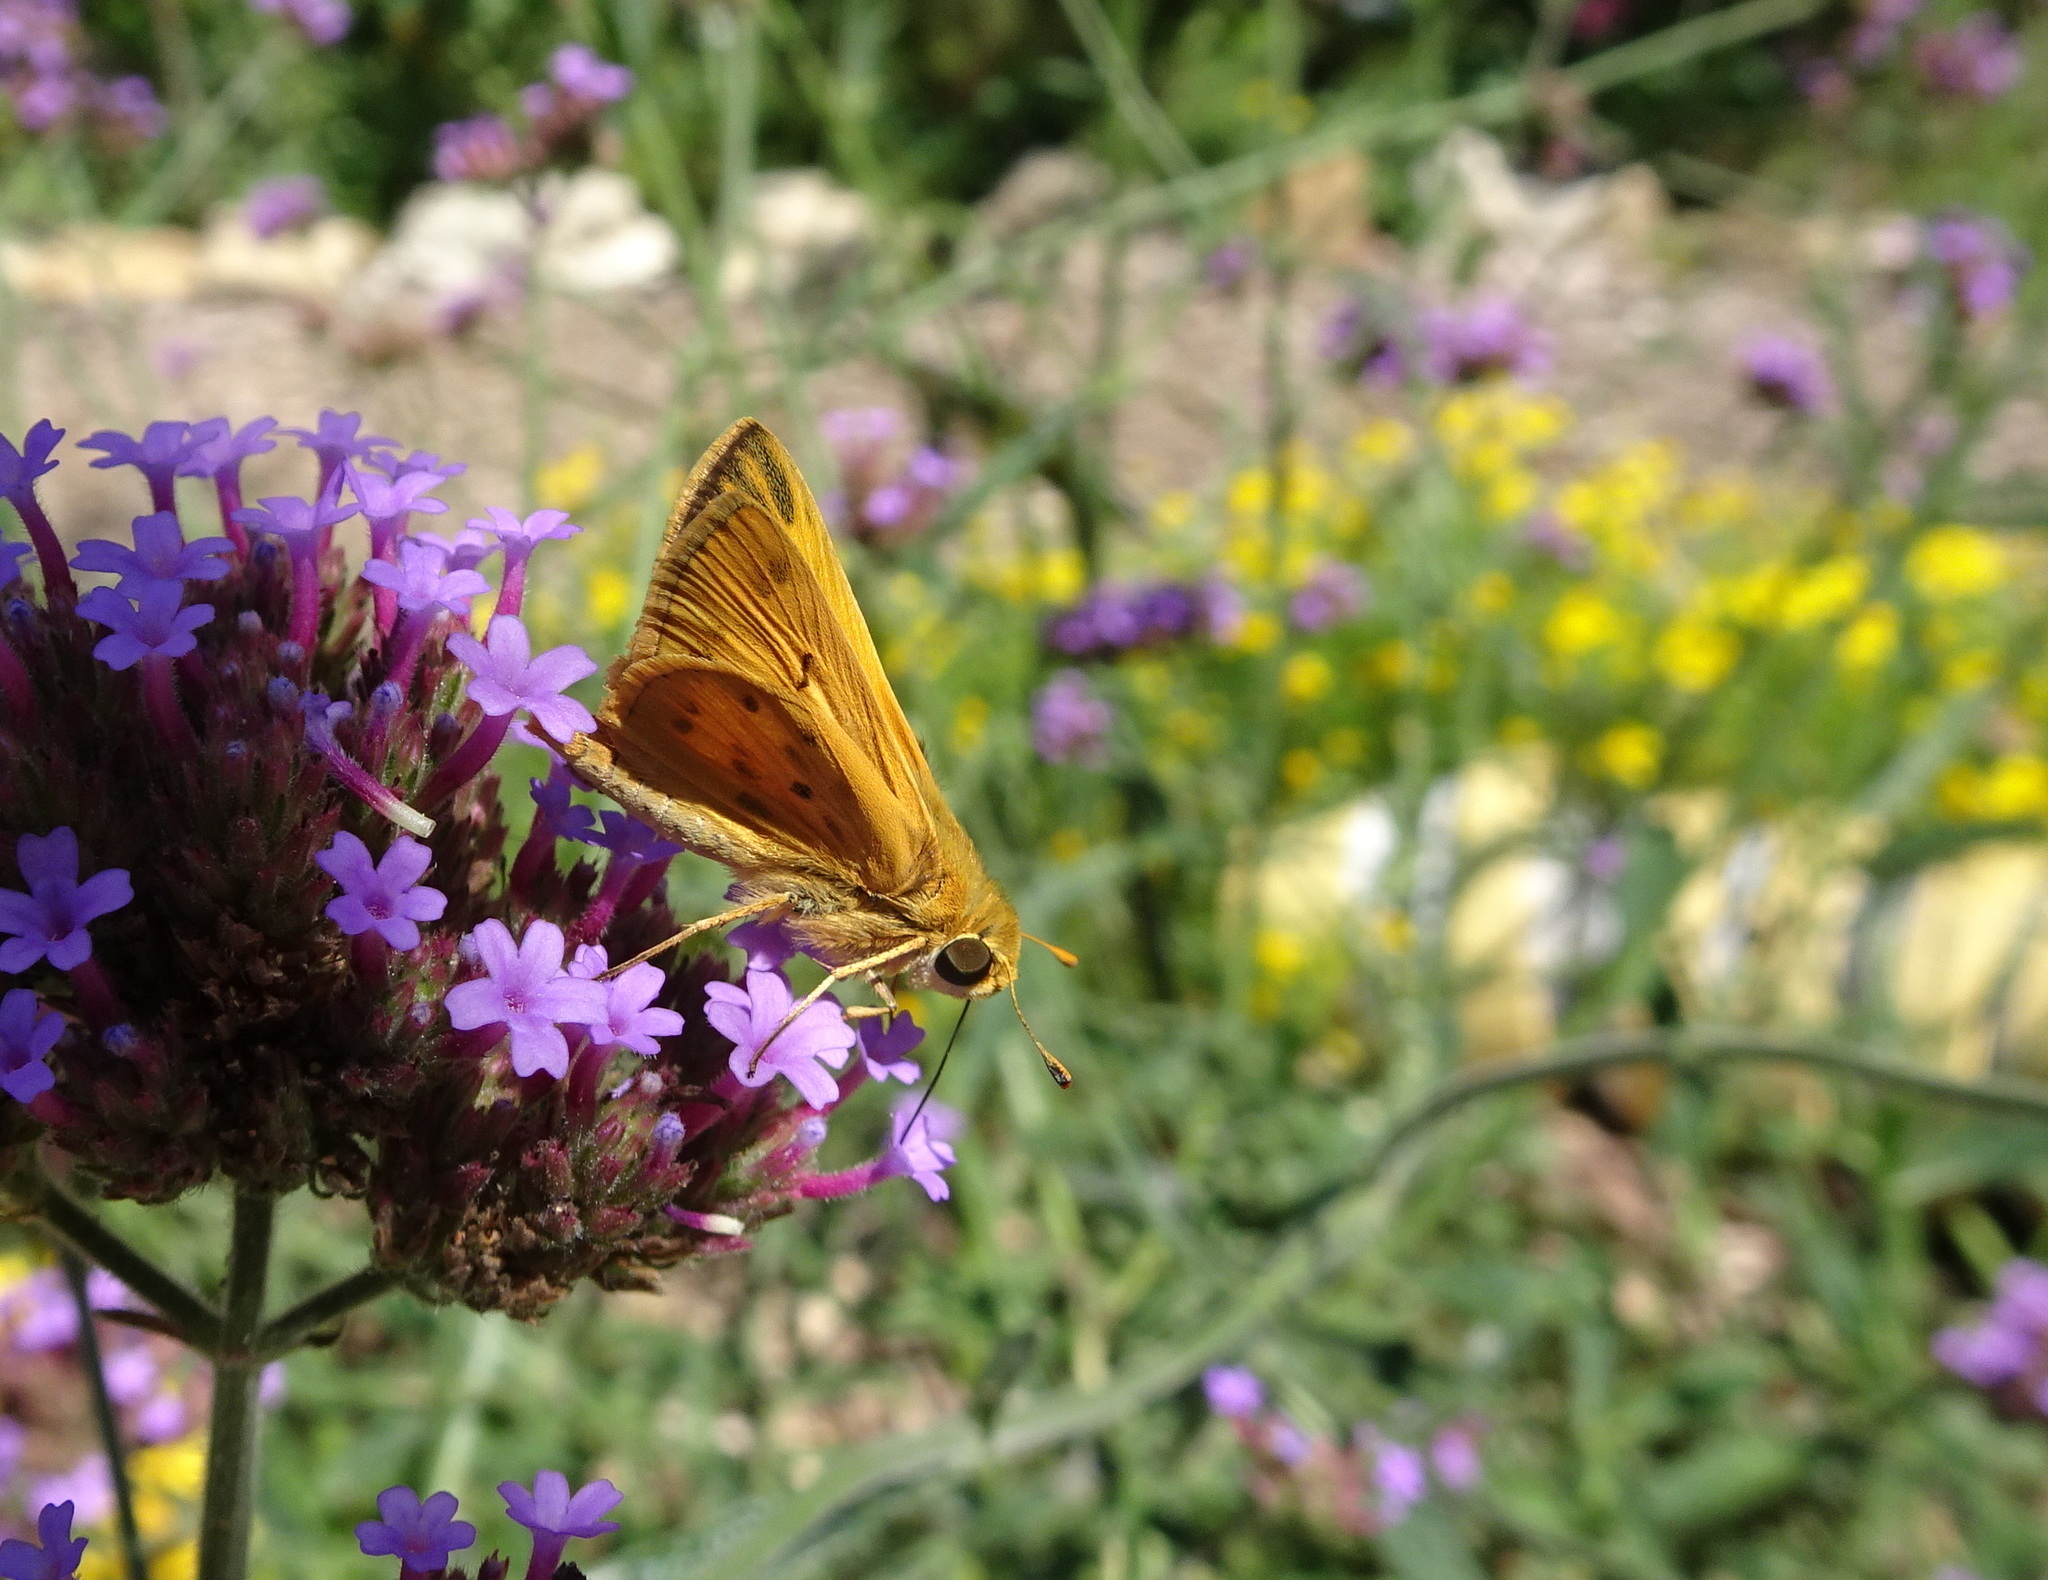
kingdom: Animalia
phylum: Arthropoda
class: Insecta
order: Lepidoptera
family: Hesperiidae
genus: Hylephila
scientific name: Hylephila phyleus
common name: Fiery skipper
